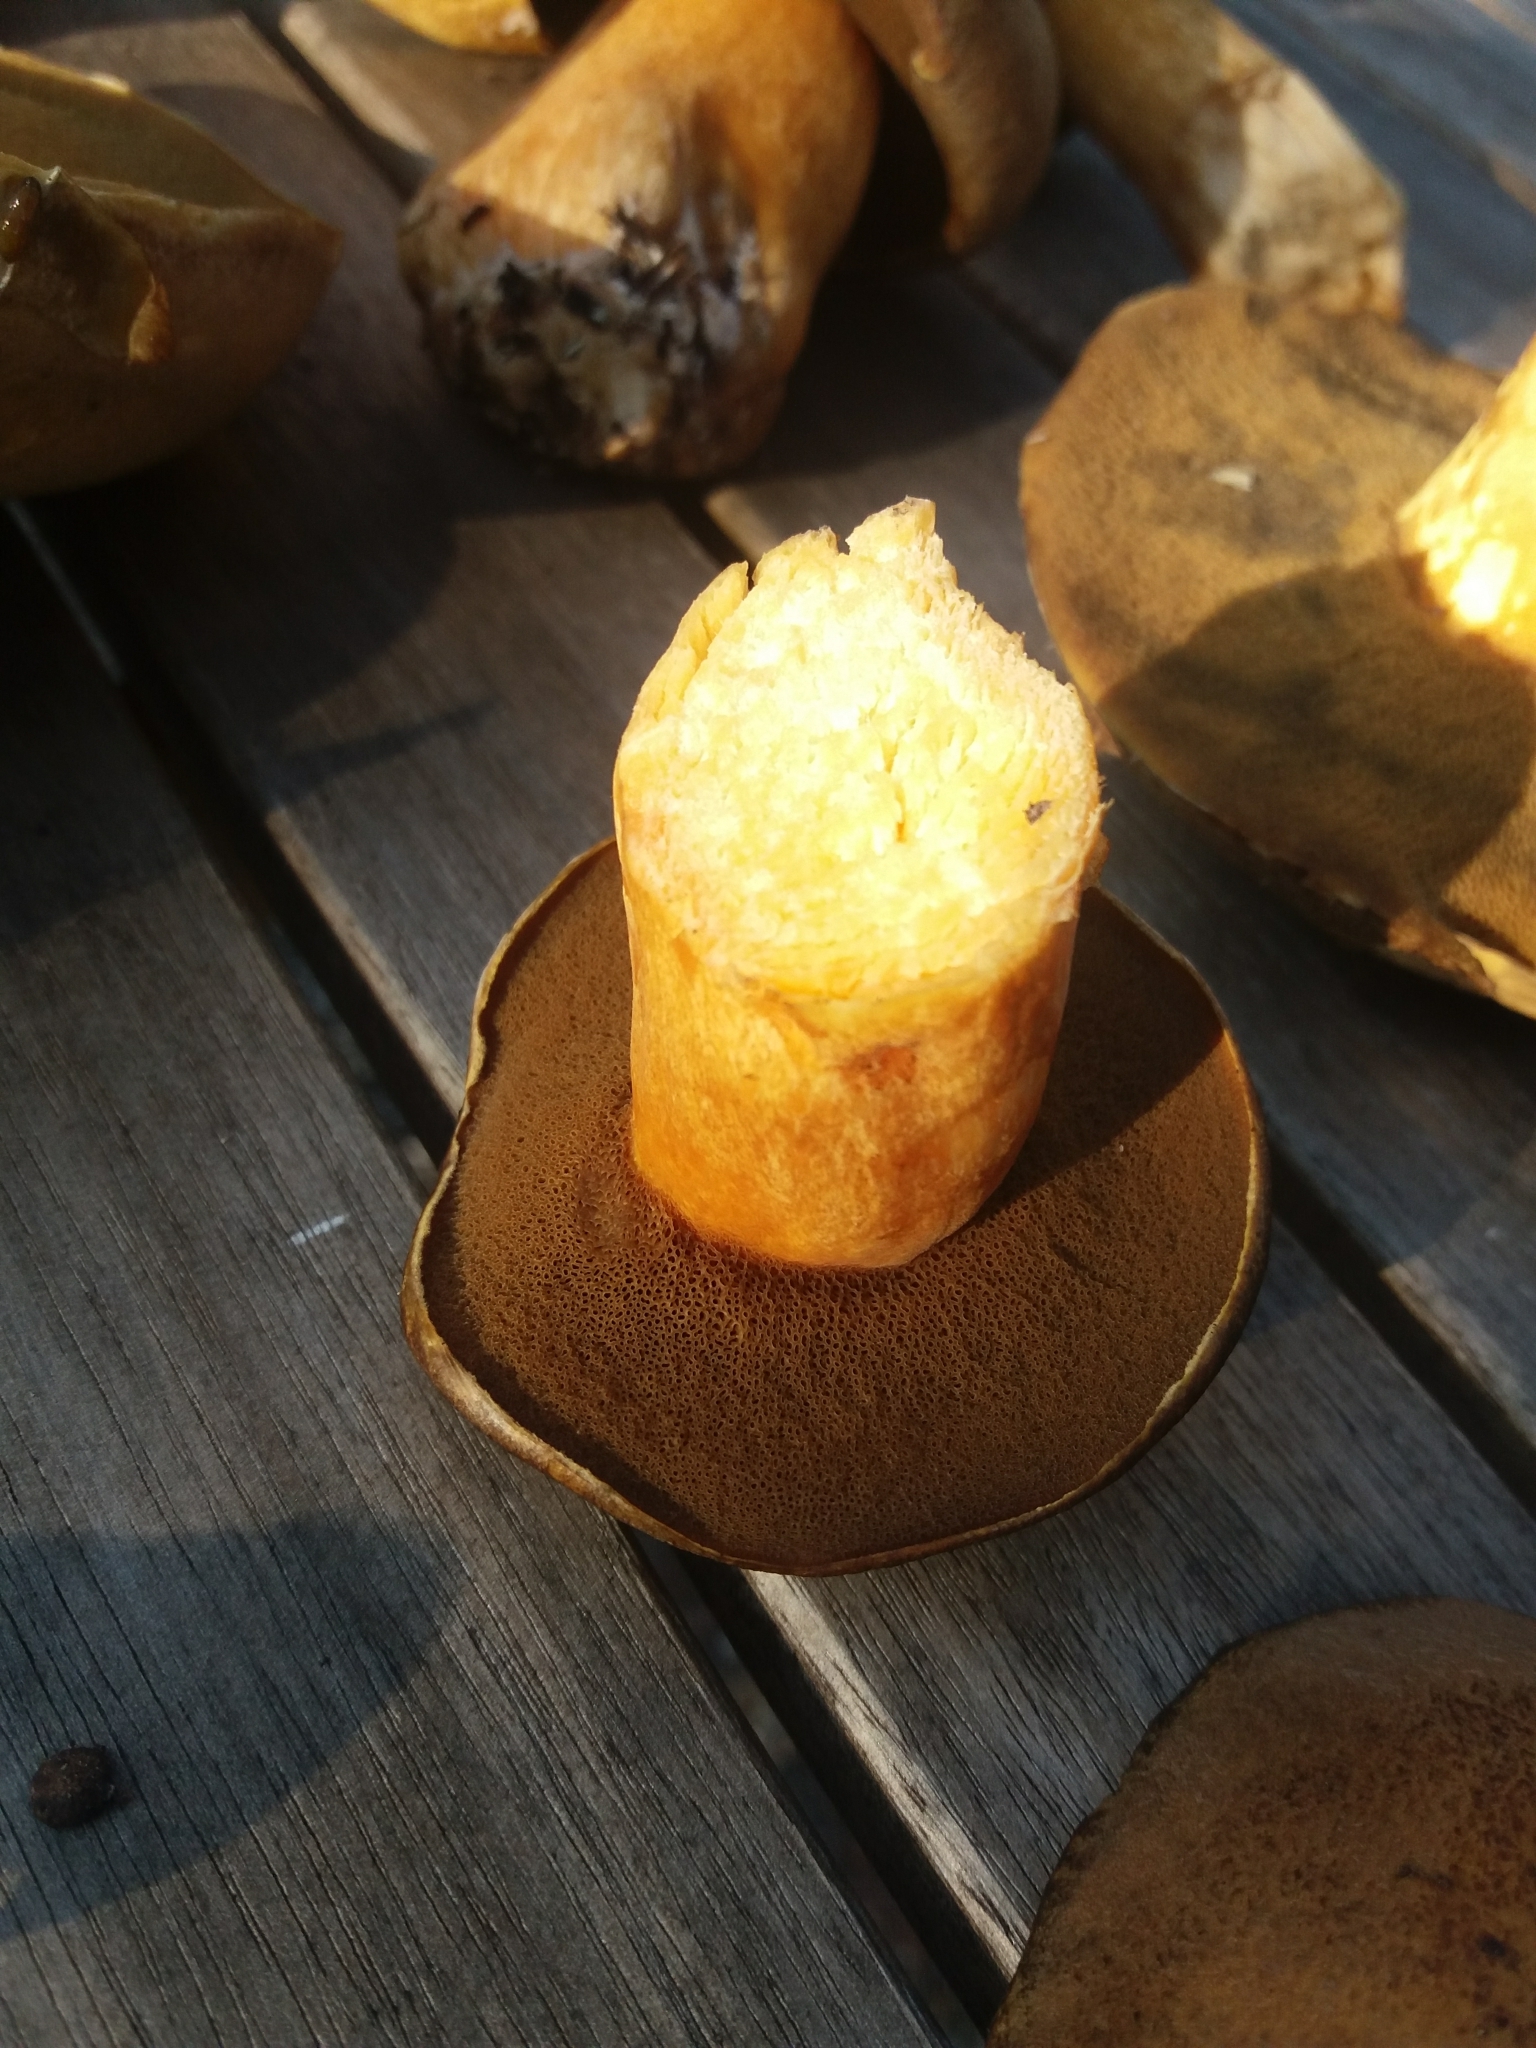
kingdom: Fungi
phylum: Basidiomycota
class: Agaricomycetes
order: Boletales
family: Suillaceae
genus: Suillus
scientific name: Suillus variegatus
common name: Velvet bolete
